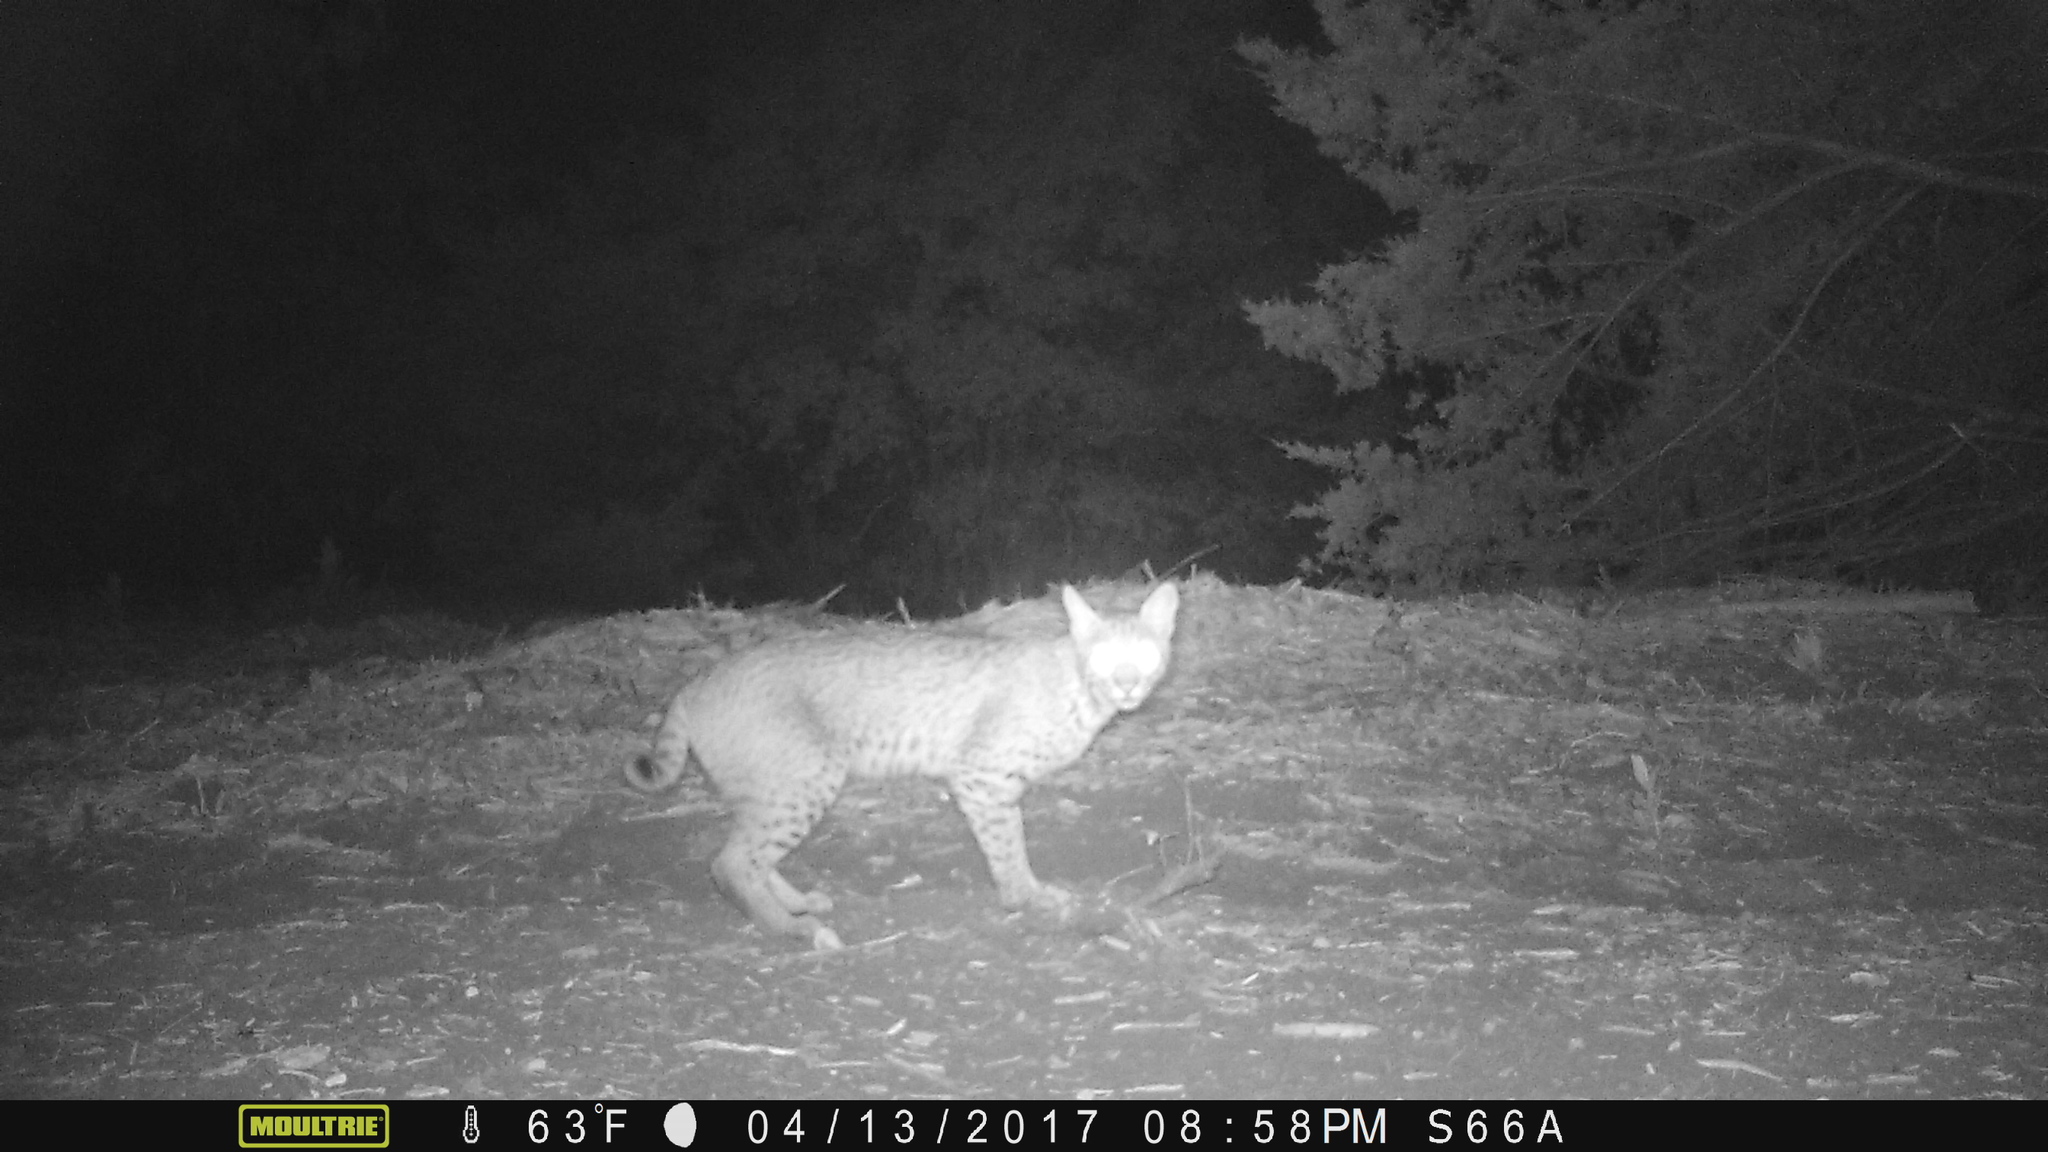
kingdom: Animalia
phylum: Chordata
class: Mammalia
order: Carnivora
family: Felidae
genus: Lynx
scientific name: Lynx rufus
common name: Bobcat
